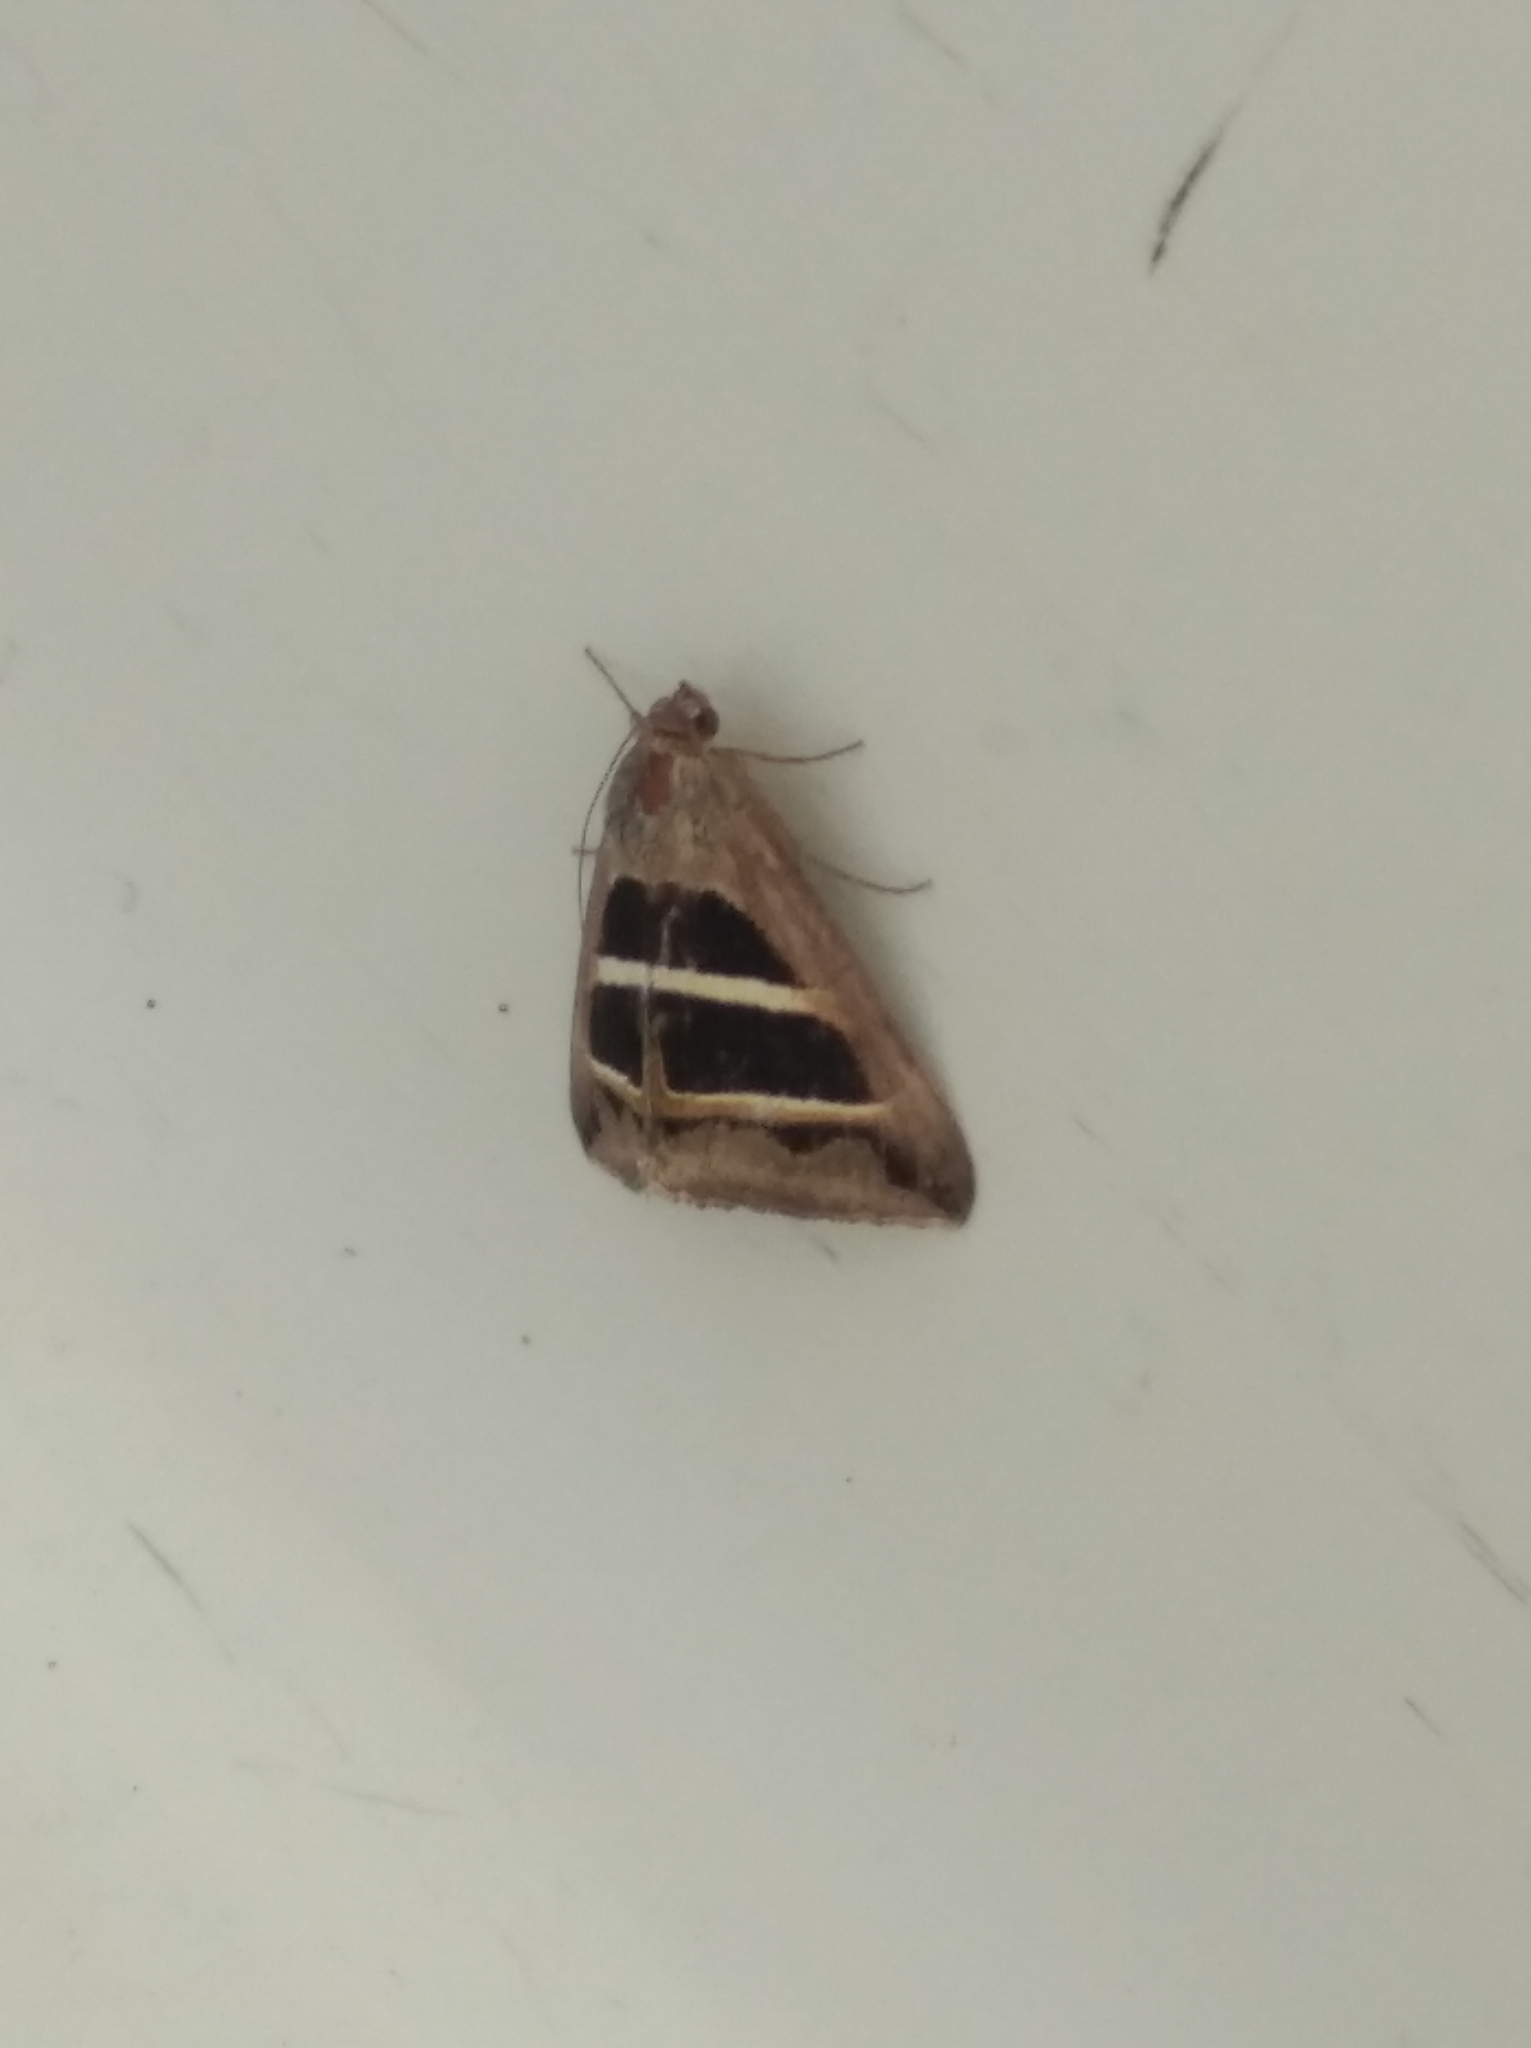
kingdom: Animalia
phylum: Arthropoda
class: Insecta
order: Lepidoptera
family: Erebidae
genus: Grammodes
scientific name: Grammodes bifasciata
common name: Parallel lines
